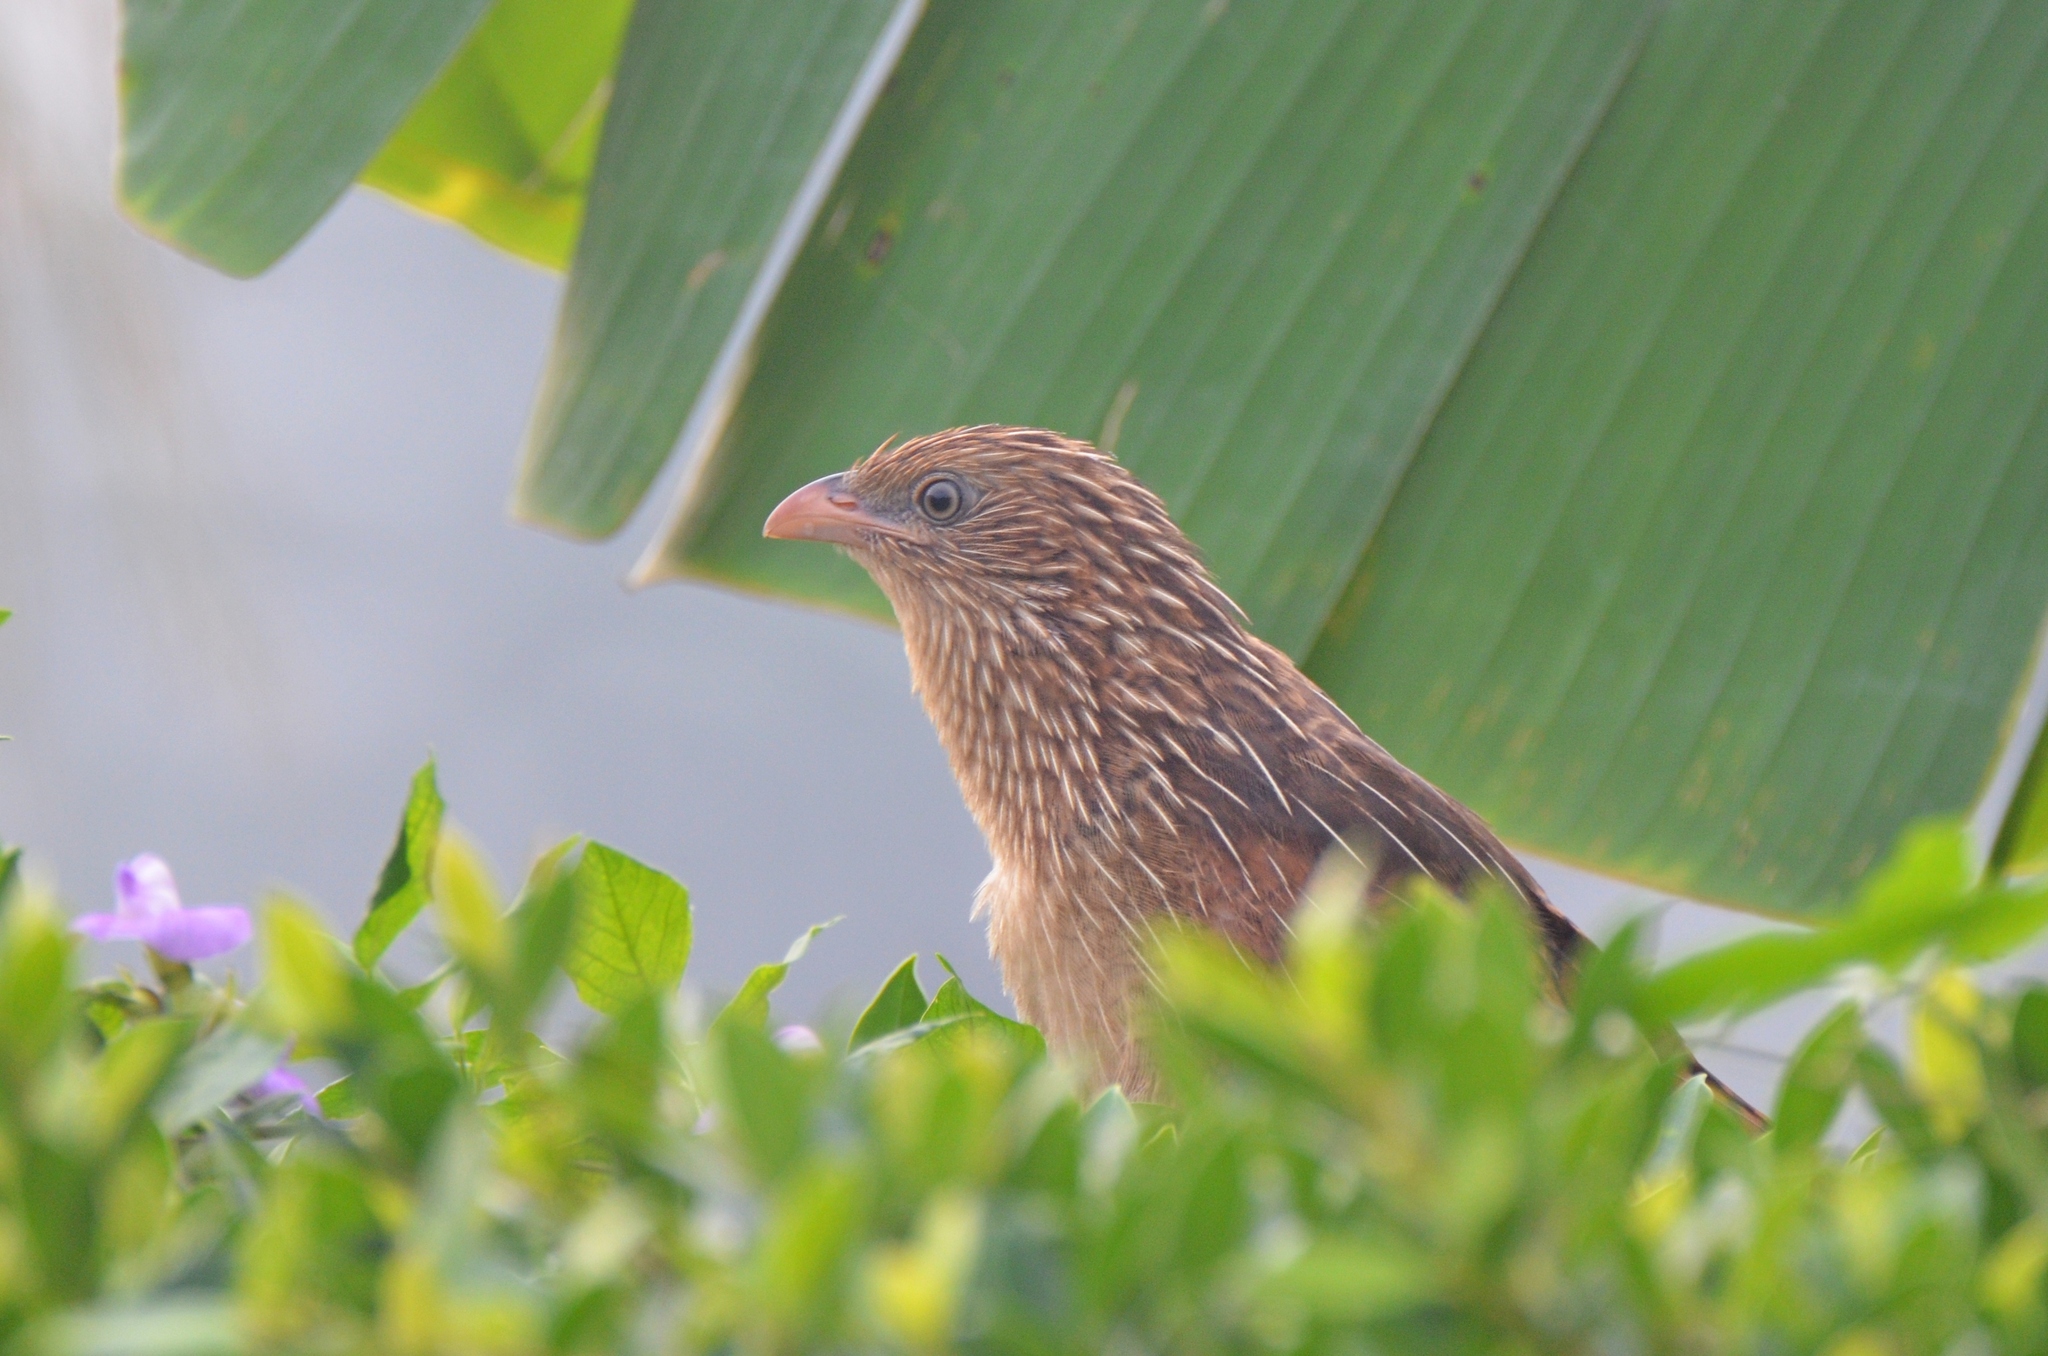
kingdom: Animalia
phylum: Chordata
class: Aves
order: Cuculiformes
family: Cuculidae
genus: Centropus
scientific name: Centropus bengalensis
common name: Lesser coucal
